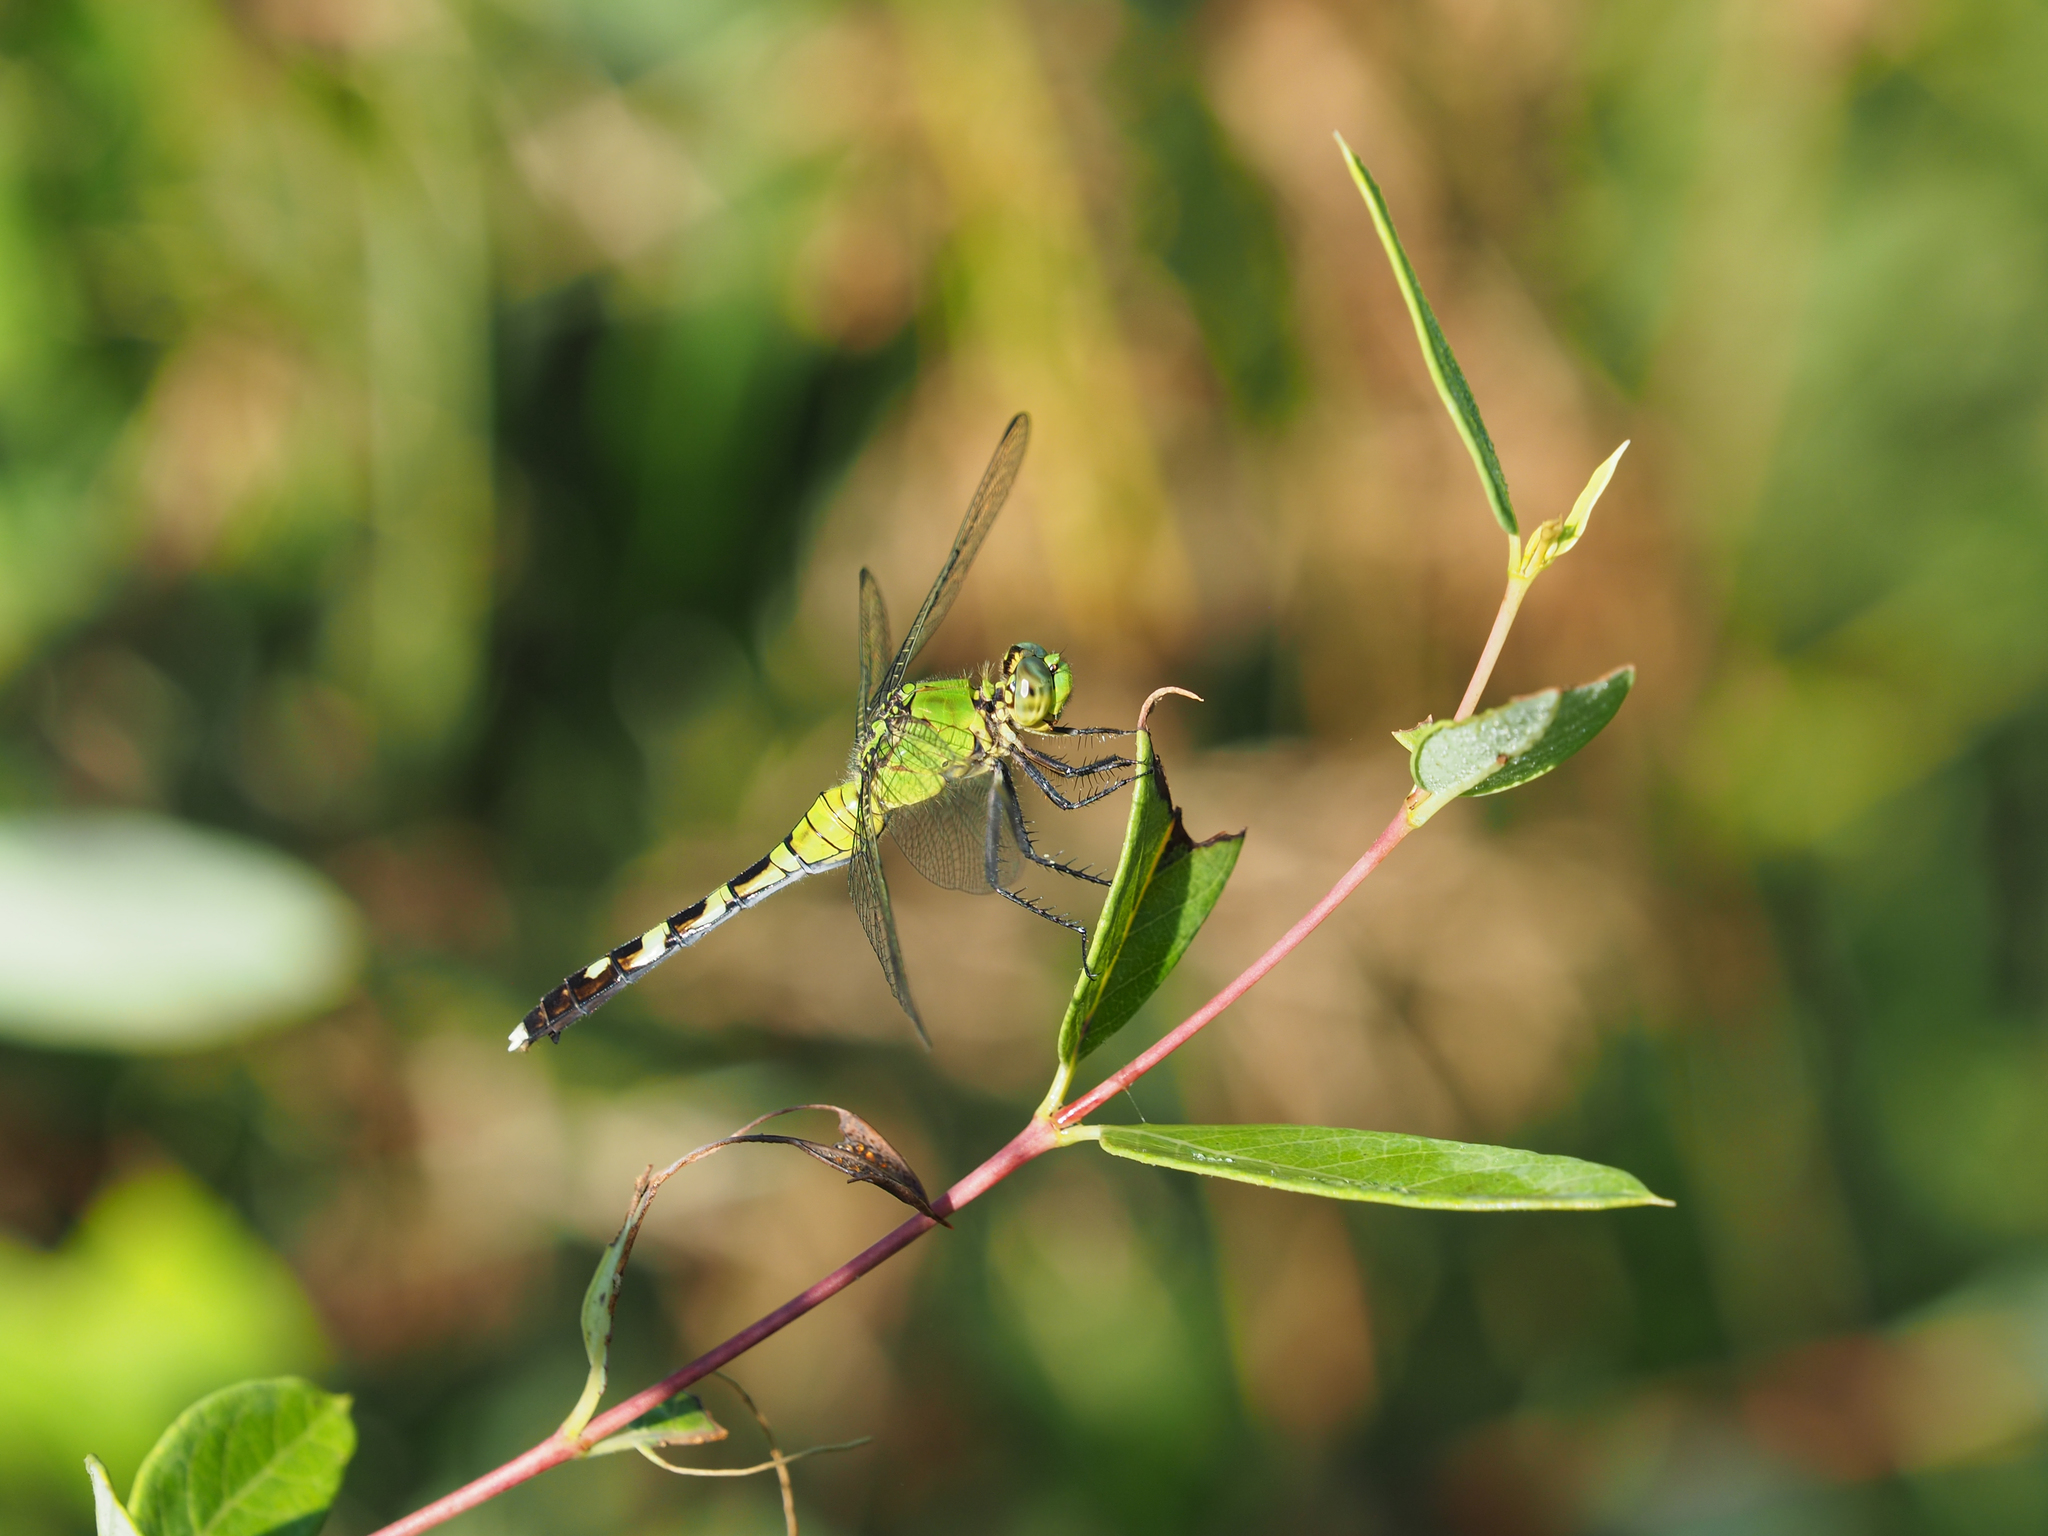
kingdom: Animalia
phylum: Arthropoda
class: Insecta
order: Odonata
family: Libellulidae
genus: Erythemis
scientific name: Erythemis simplicicollis
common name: Eastern pondhawk
